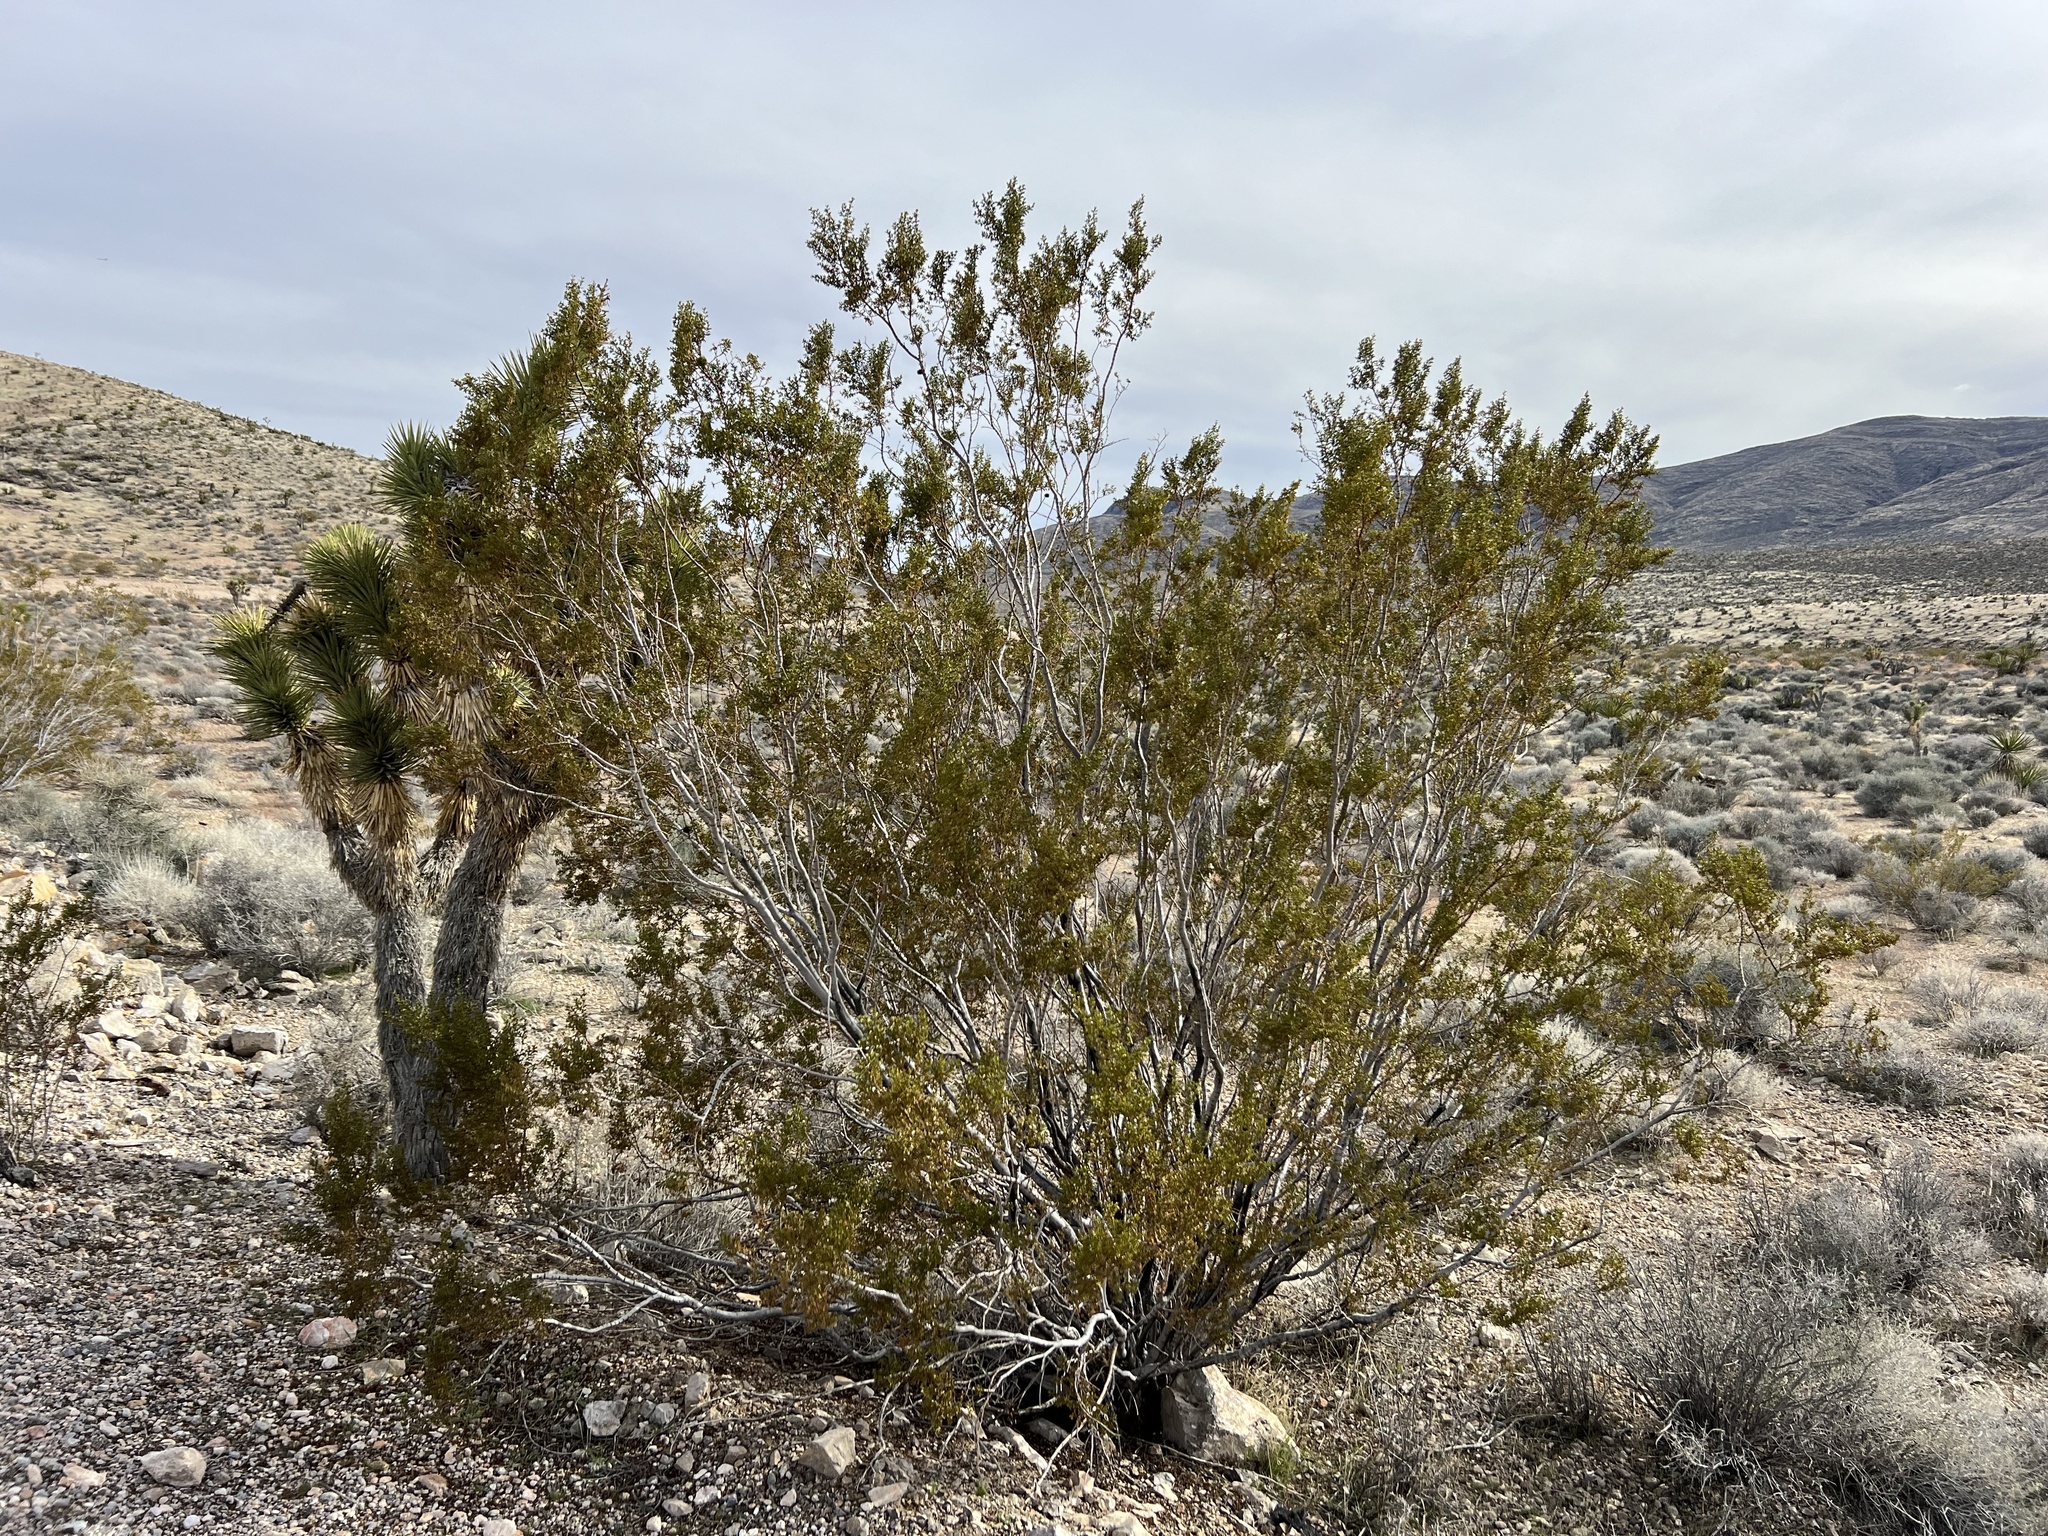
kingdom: Plantae
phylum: Tracheophyta
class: Magnoliopsida
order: Zygophyllales
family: Zygophyllaceae
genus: Larrea
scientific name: Larrea tridentata
